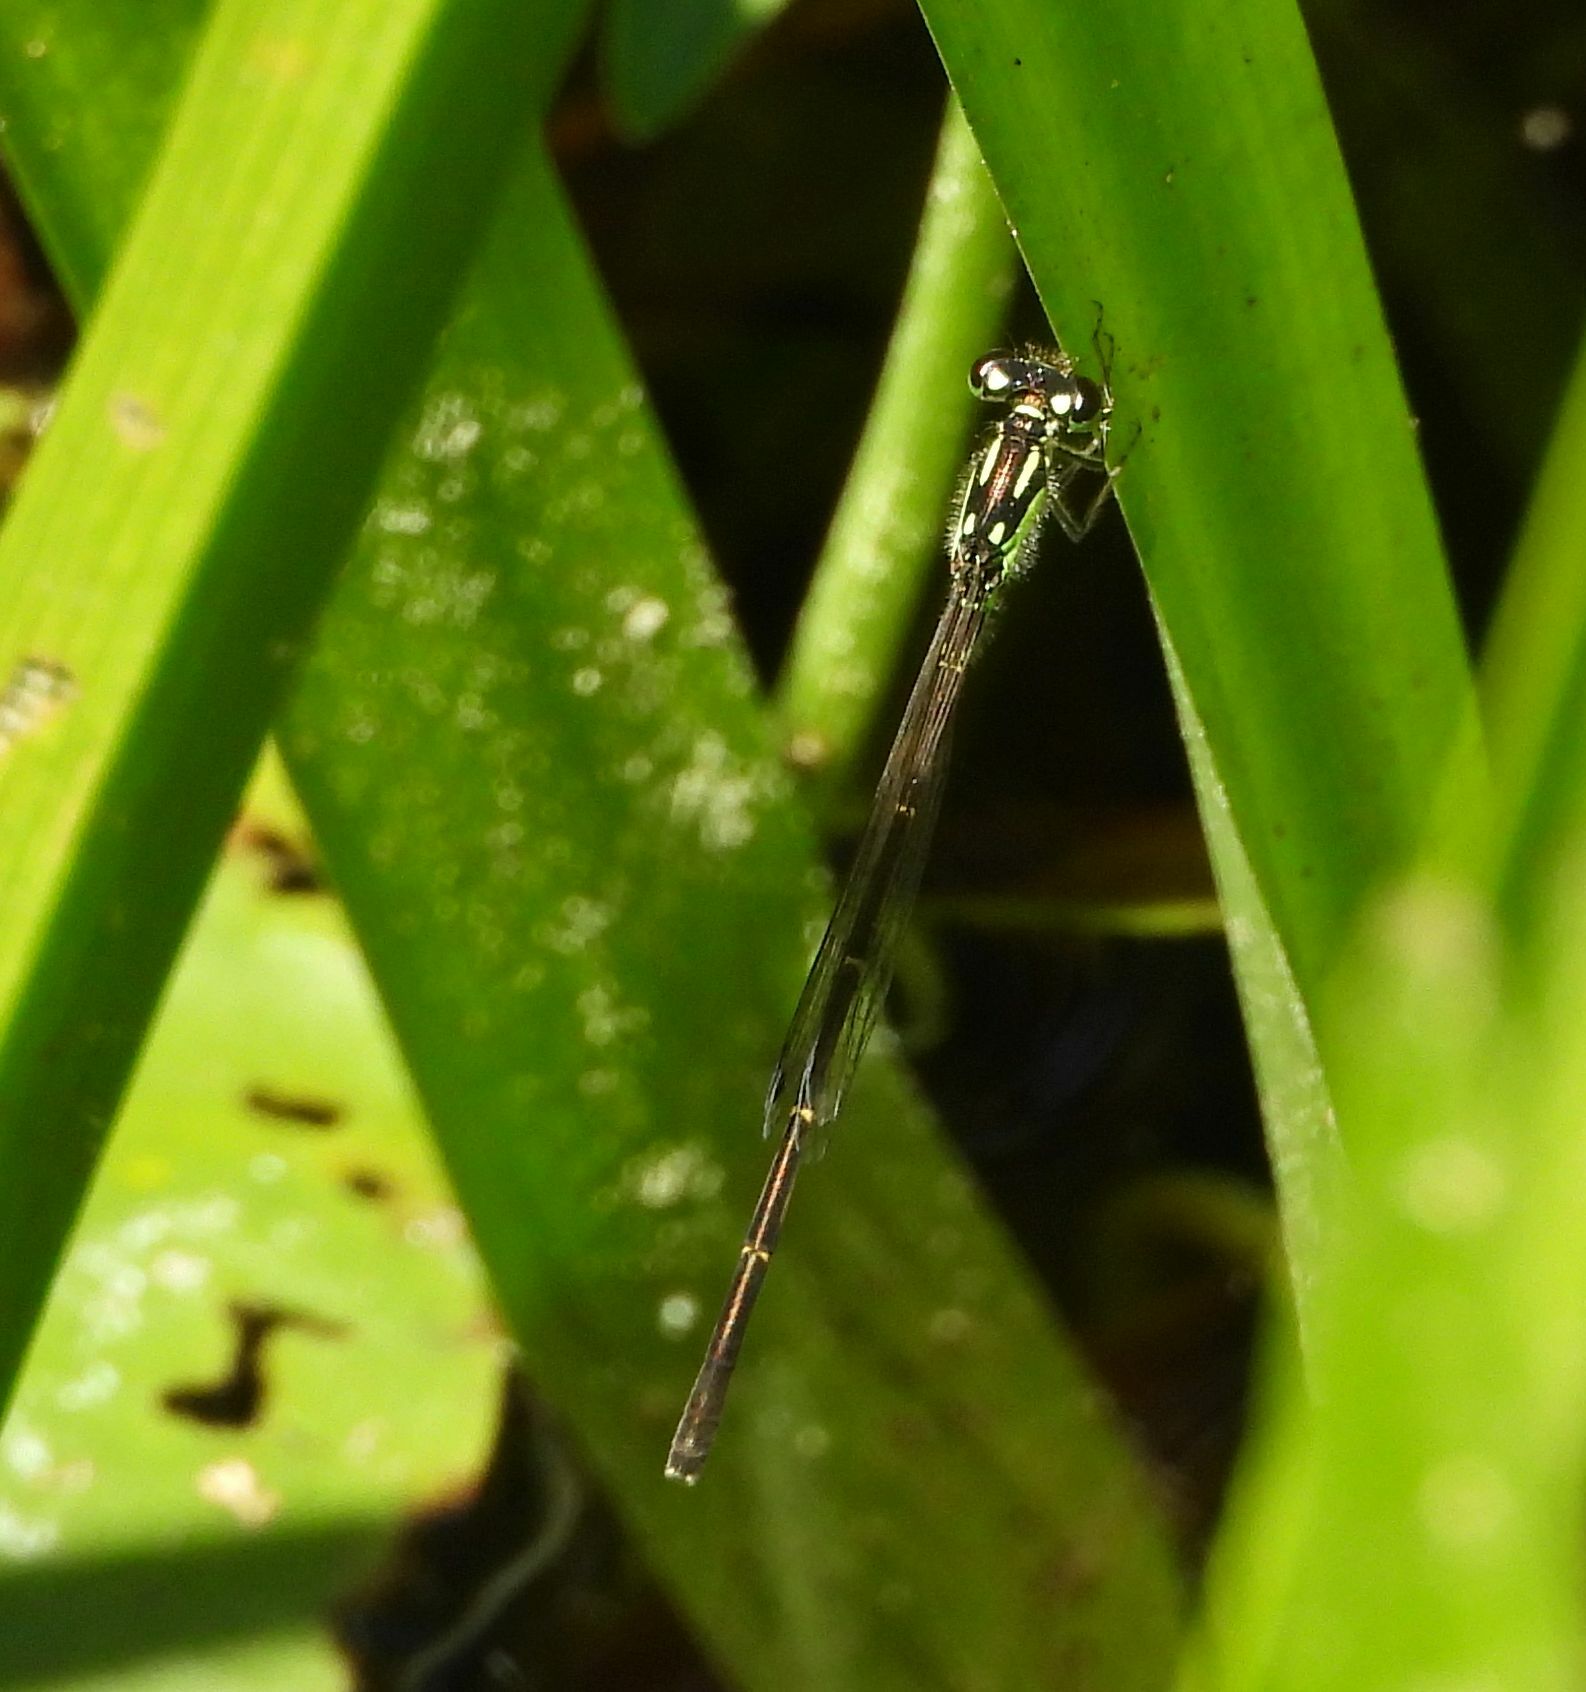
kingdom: Animalia
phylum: Arthropoda
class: Insecta
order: Odonata
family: Coenagrionidae
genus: Ischnura
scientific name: Ischnura posita
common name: Fragile forktail
